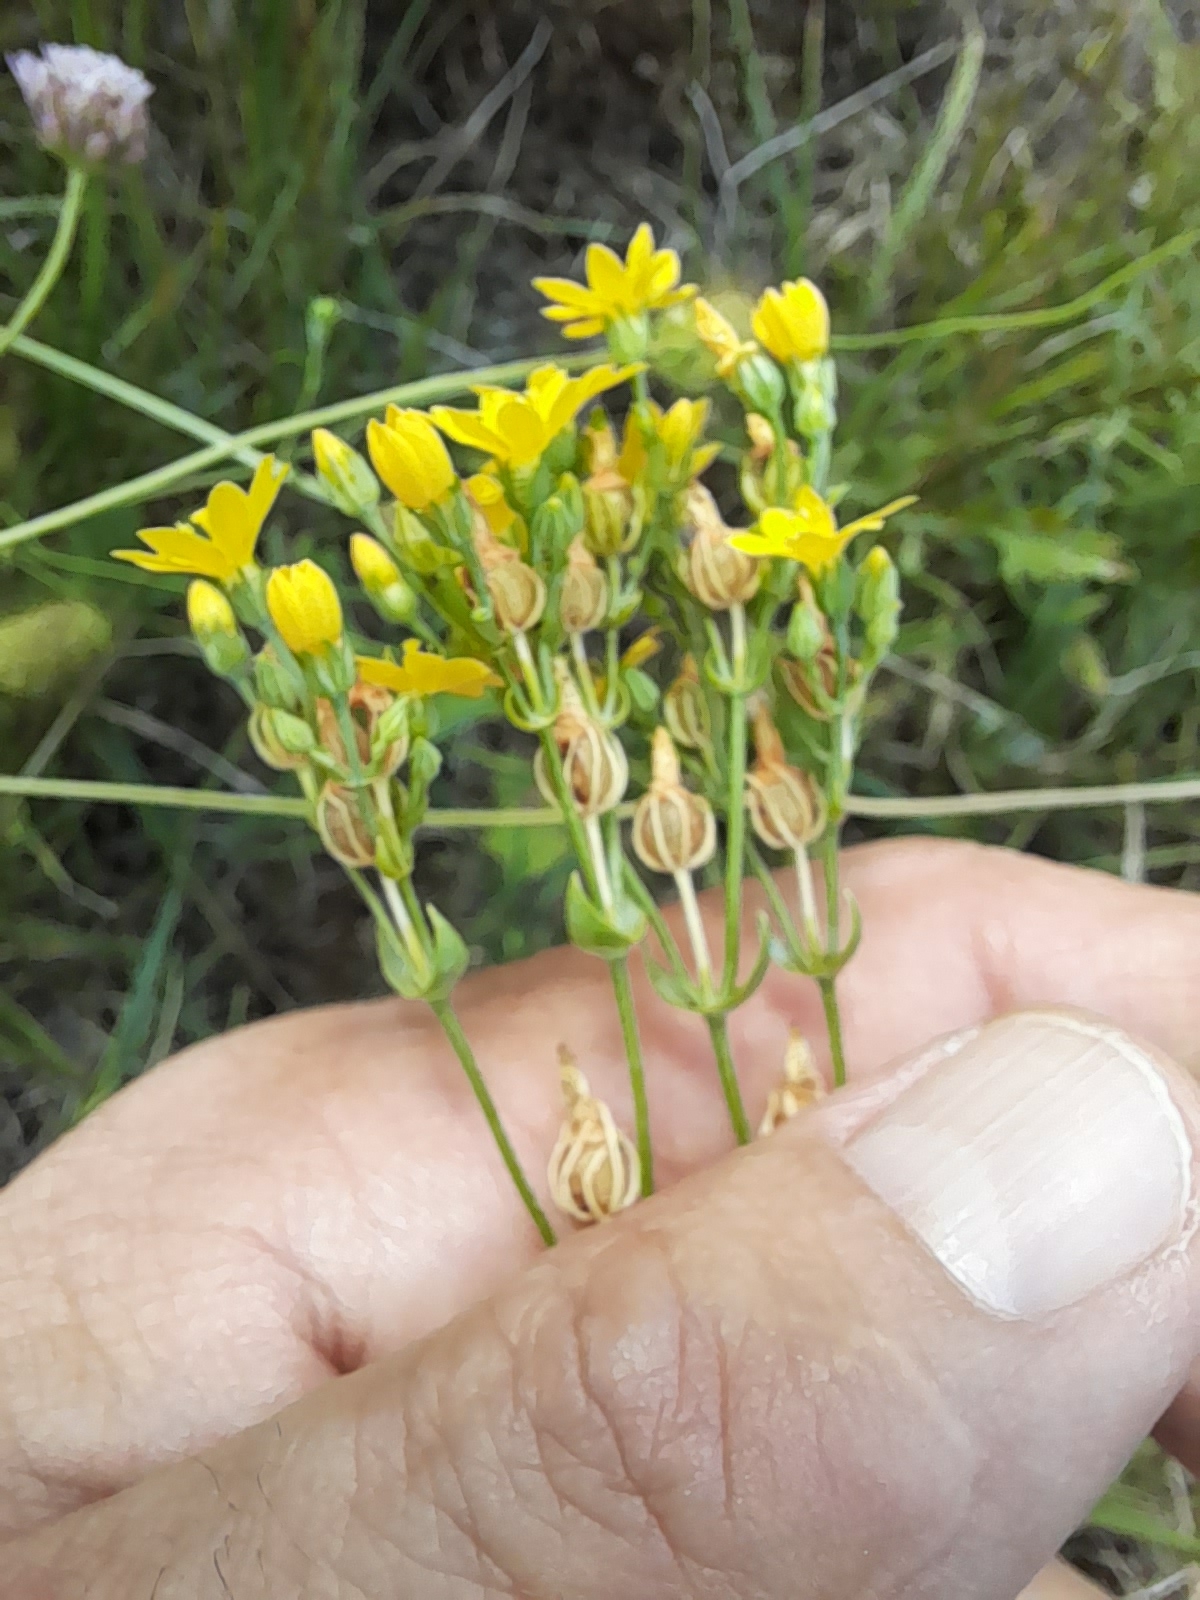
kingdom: Plantae
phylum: Tracheophyta
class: Magnoliopsida
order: Gentianales
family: Gentianaceae
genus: Blackstonia
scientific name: Blackstonia perfoliata
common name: Yellow-wort
